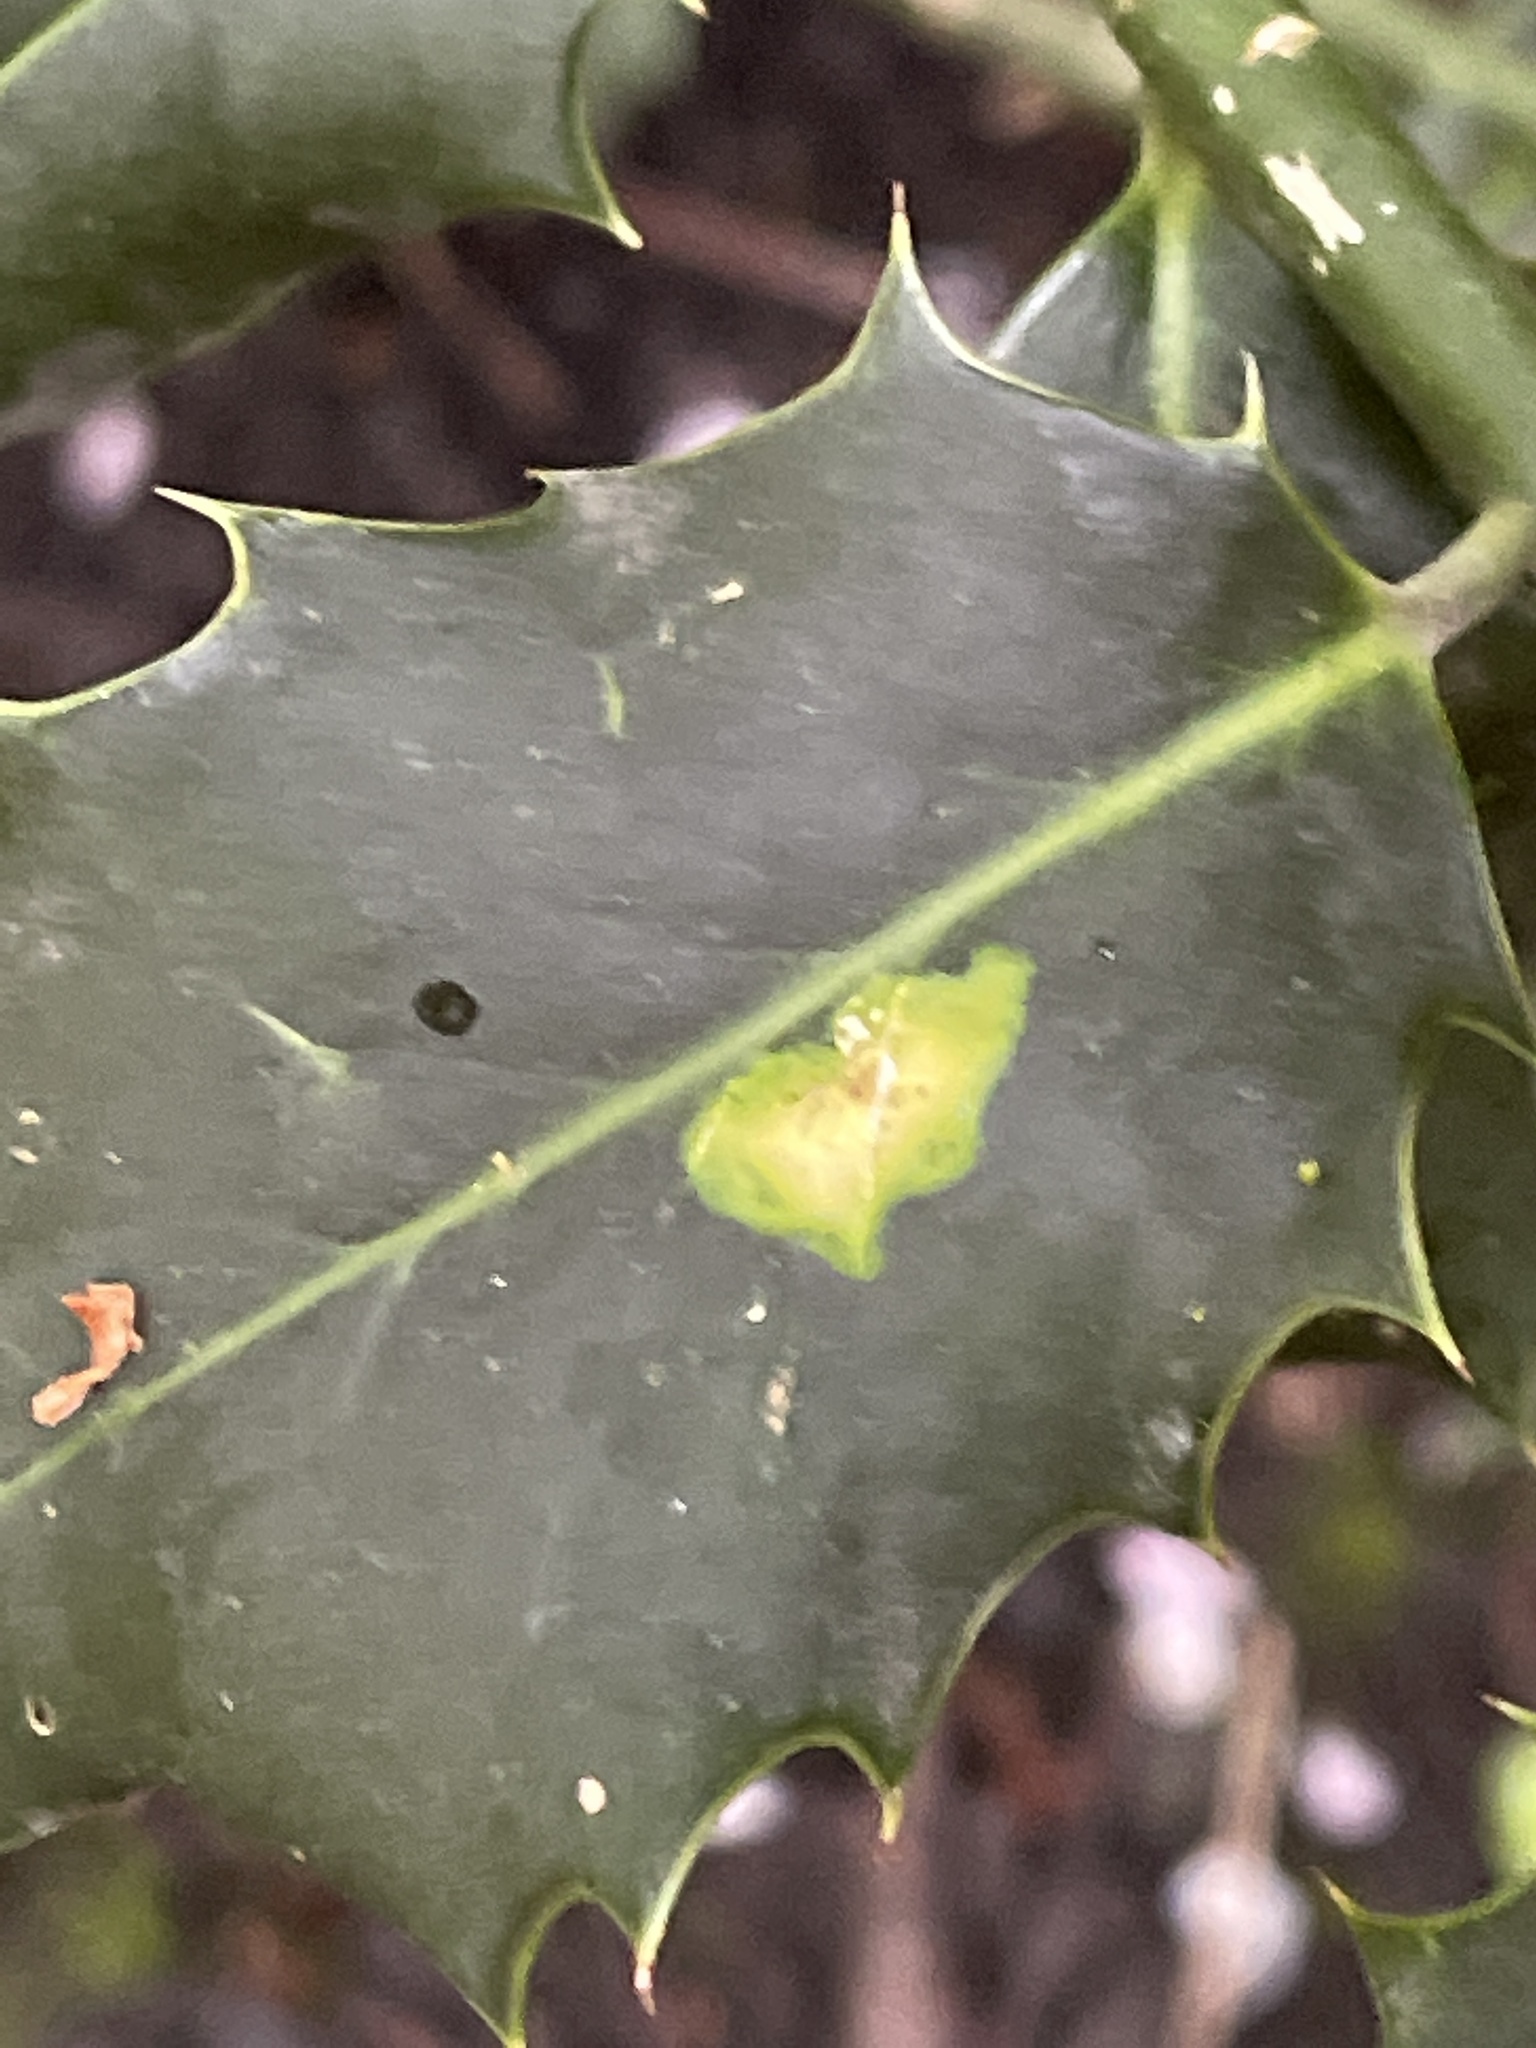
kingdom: Animalia
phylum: Arthropoda
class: Insecta
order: Diptera
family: Agromyzidae
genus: Phytomyza
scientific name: Phytomyza ilicis
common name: Holly leafminer
